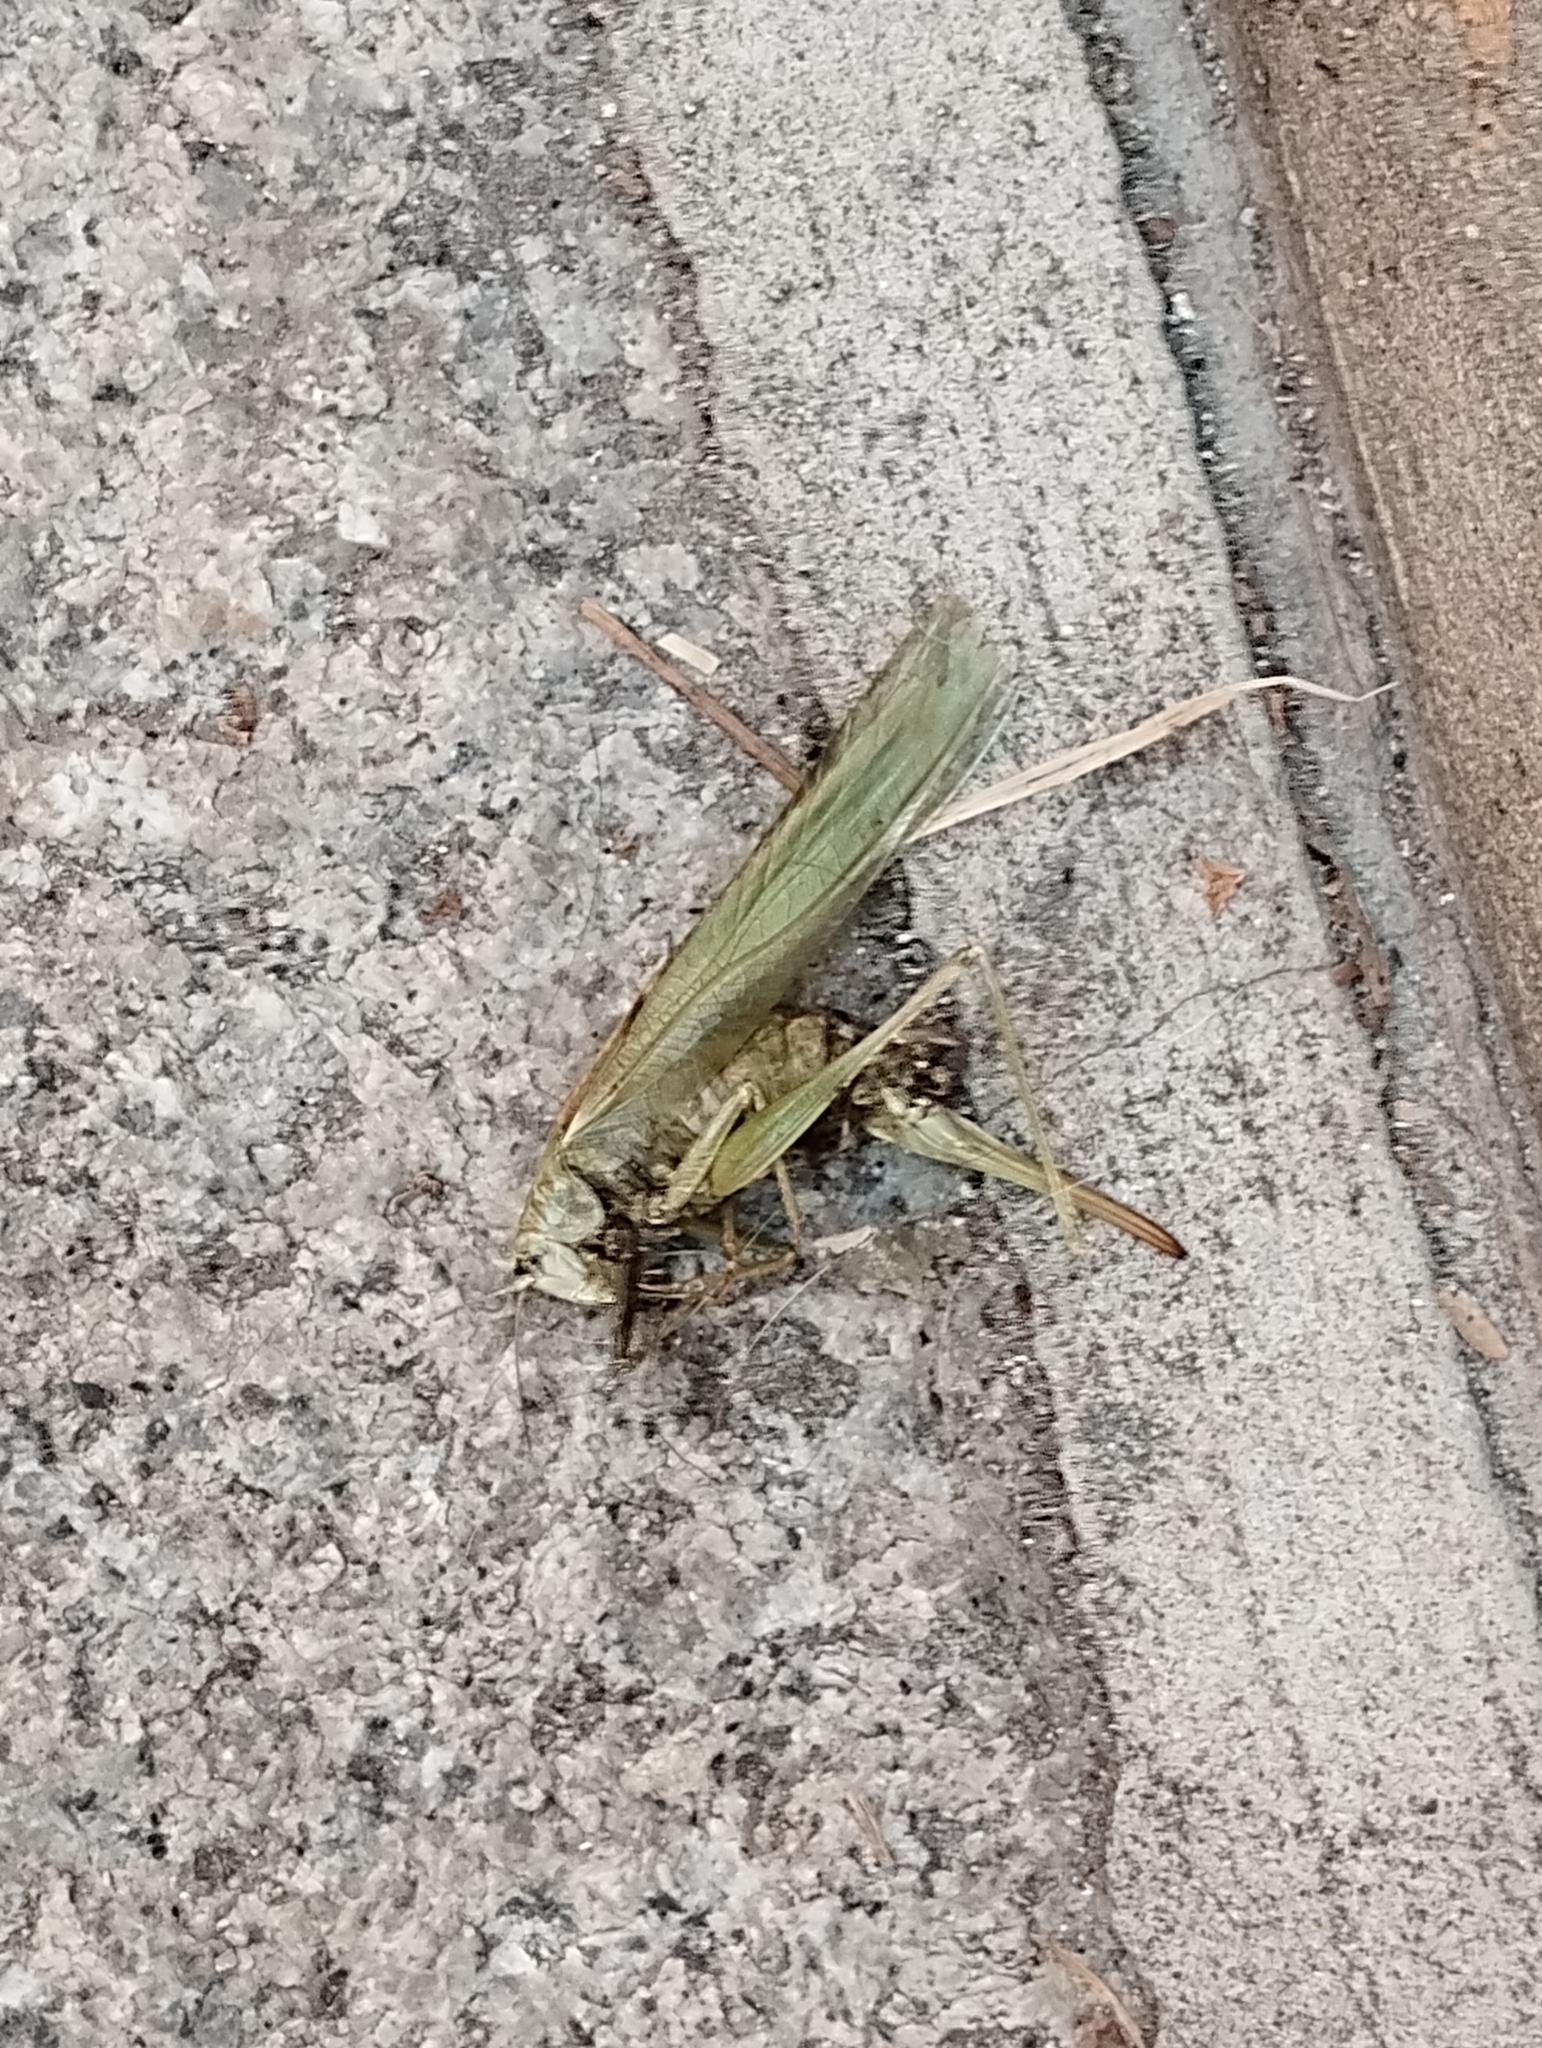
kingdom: Animalia
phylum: Arthropoda
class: Insecta
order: Orthoptera
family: Tettigoniidae
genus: Tettigonia
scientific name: Tettigonia viridissima
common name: Great green bush-cricket
